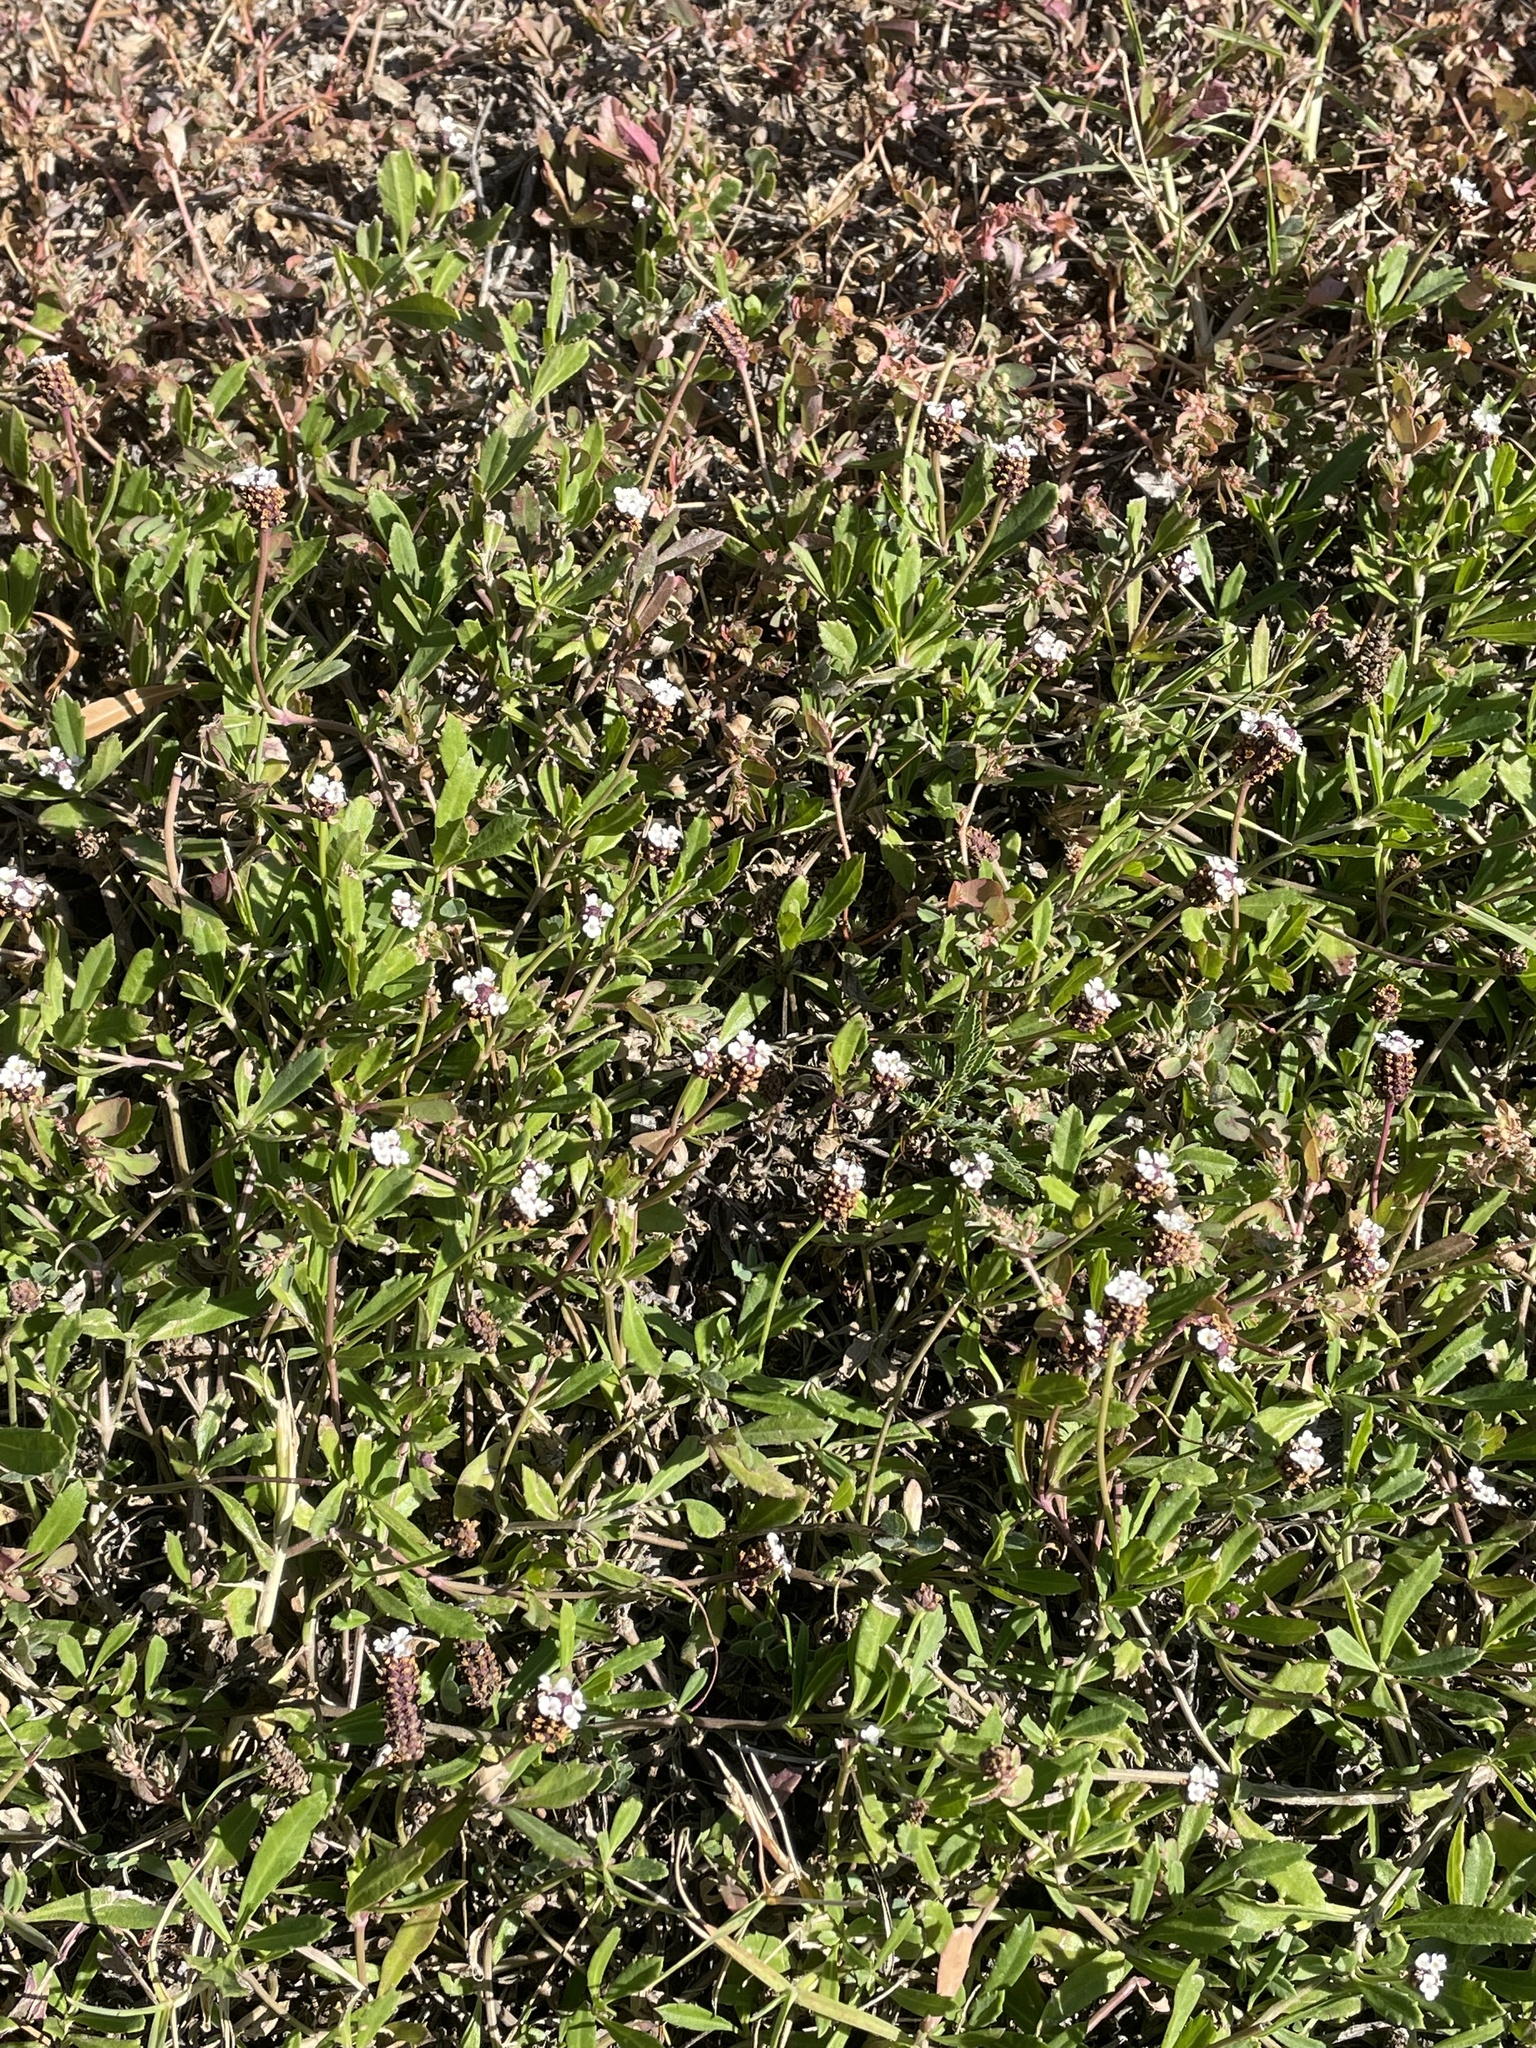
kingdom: Plantae
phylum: Tracheophyta
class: Magnoliopsida
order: Lamiales
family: Verbenaceae
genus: Phyla
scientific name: Phyla nodiflora
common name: Frogfruit
